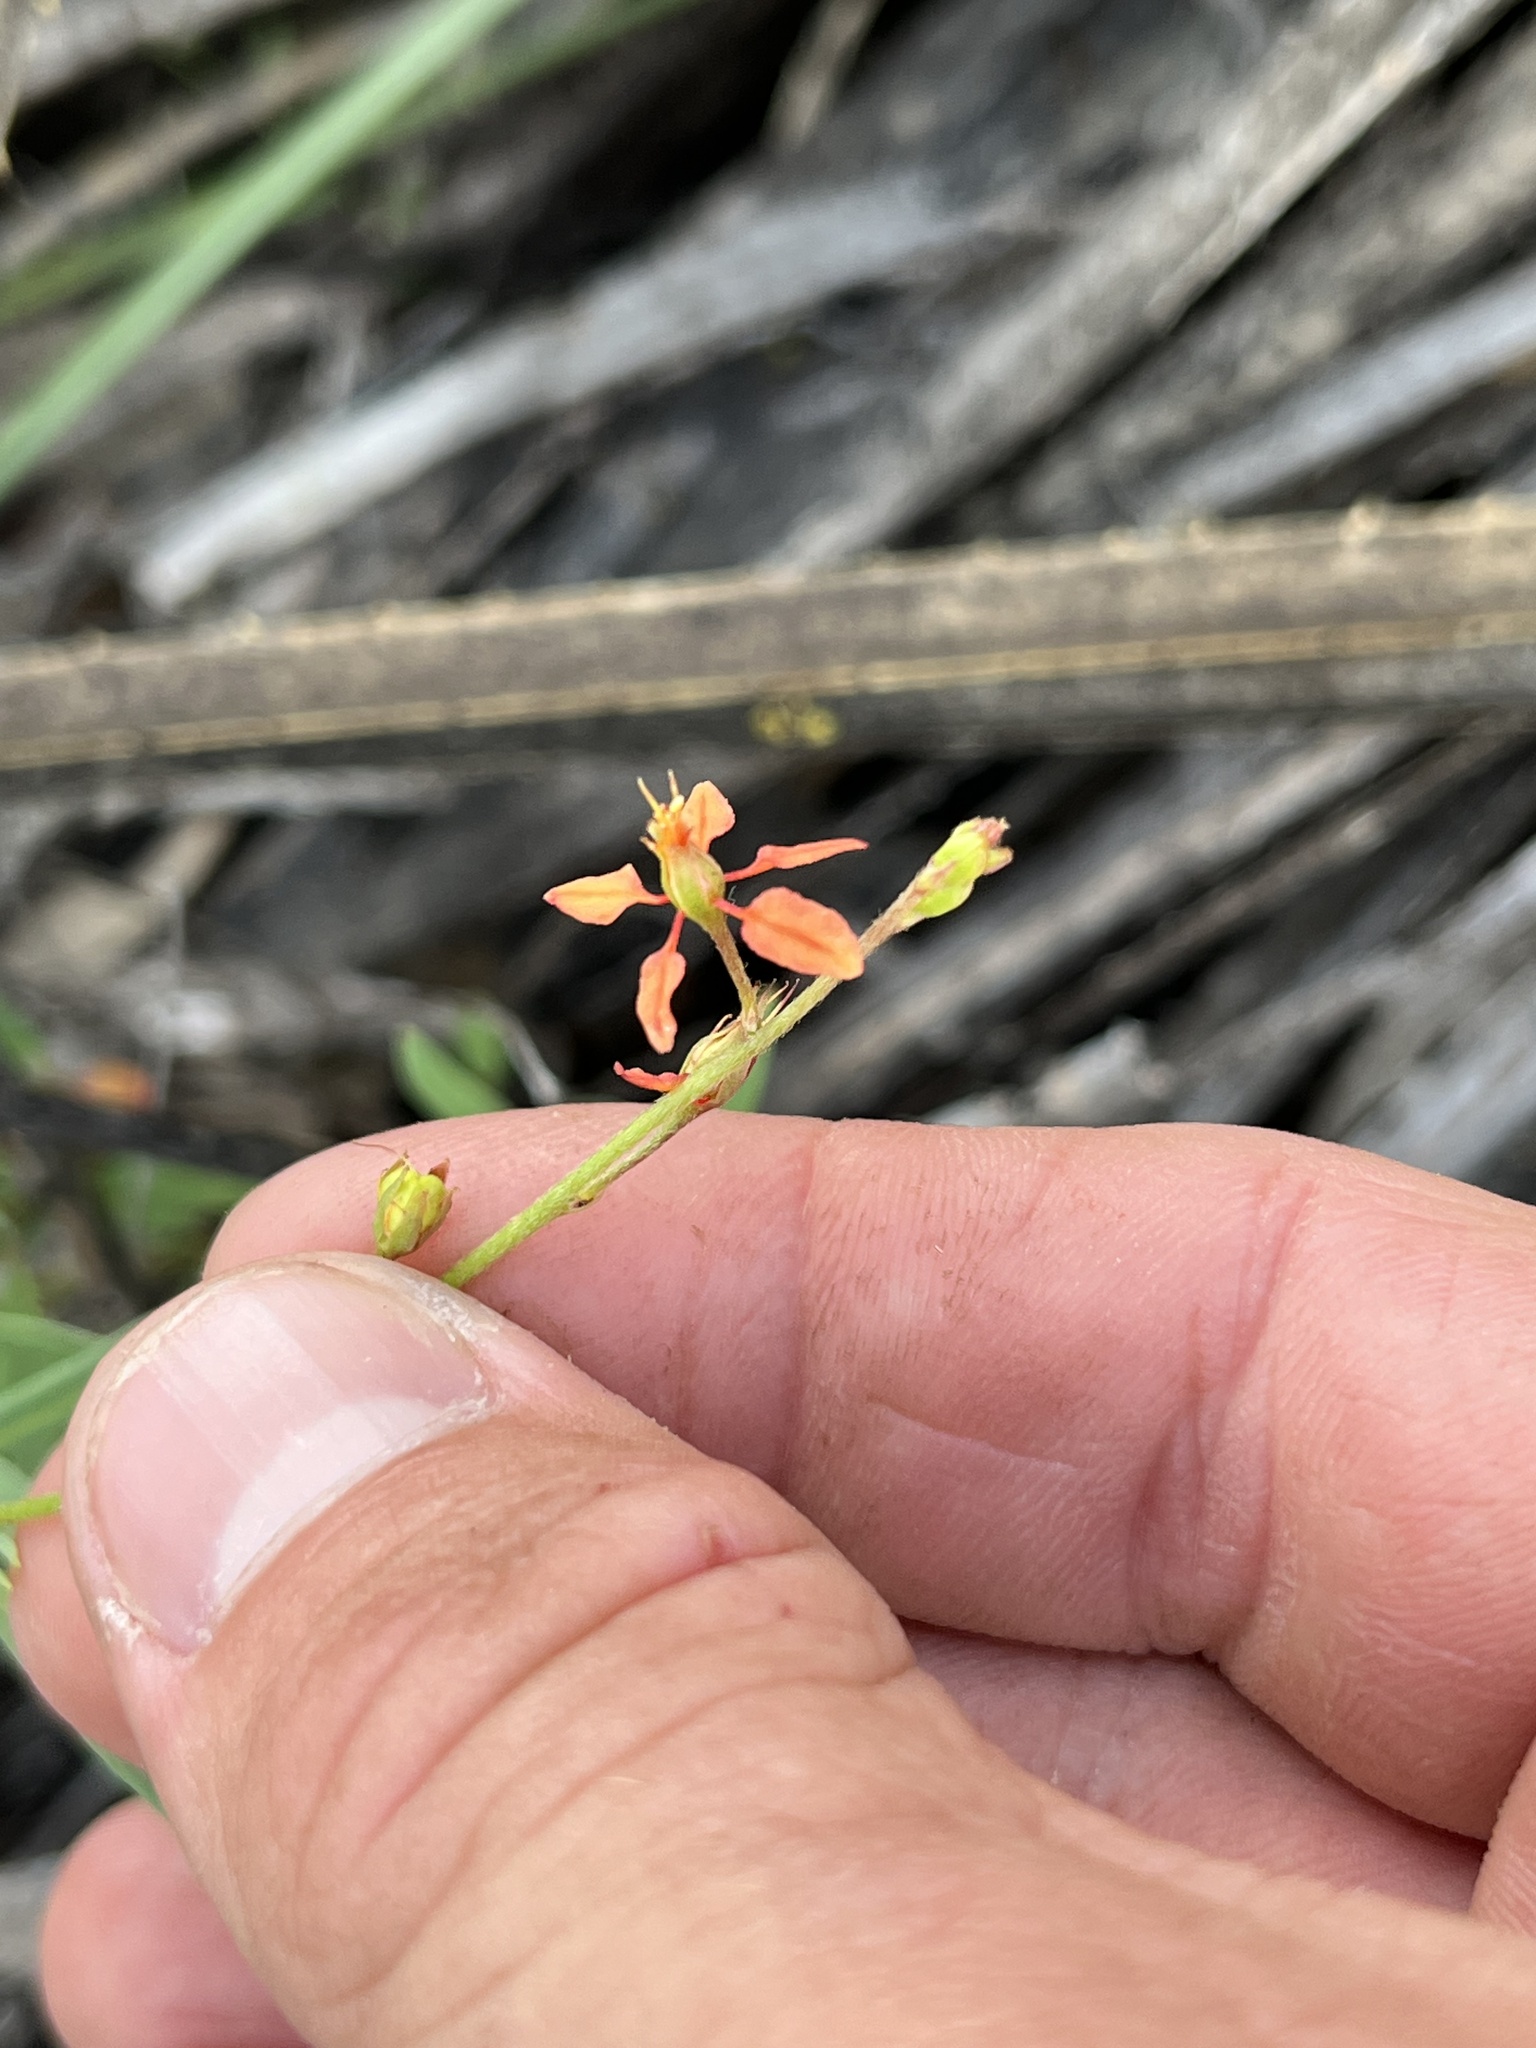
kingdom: Plantae
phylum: Tracheophyta
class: Magnoliopsida
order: Malpighiales
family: Malpighiaceae
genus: Galphimia
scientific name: Galphimia angustifolia
